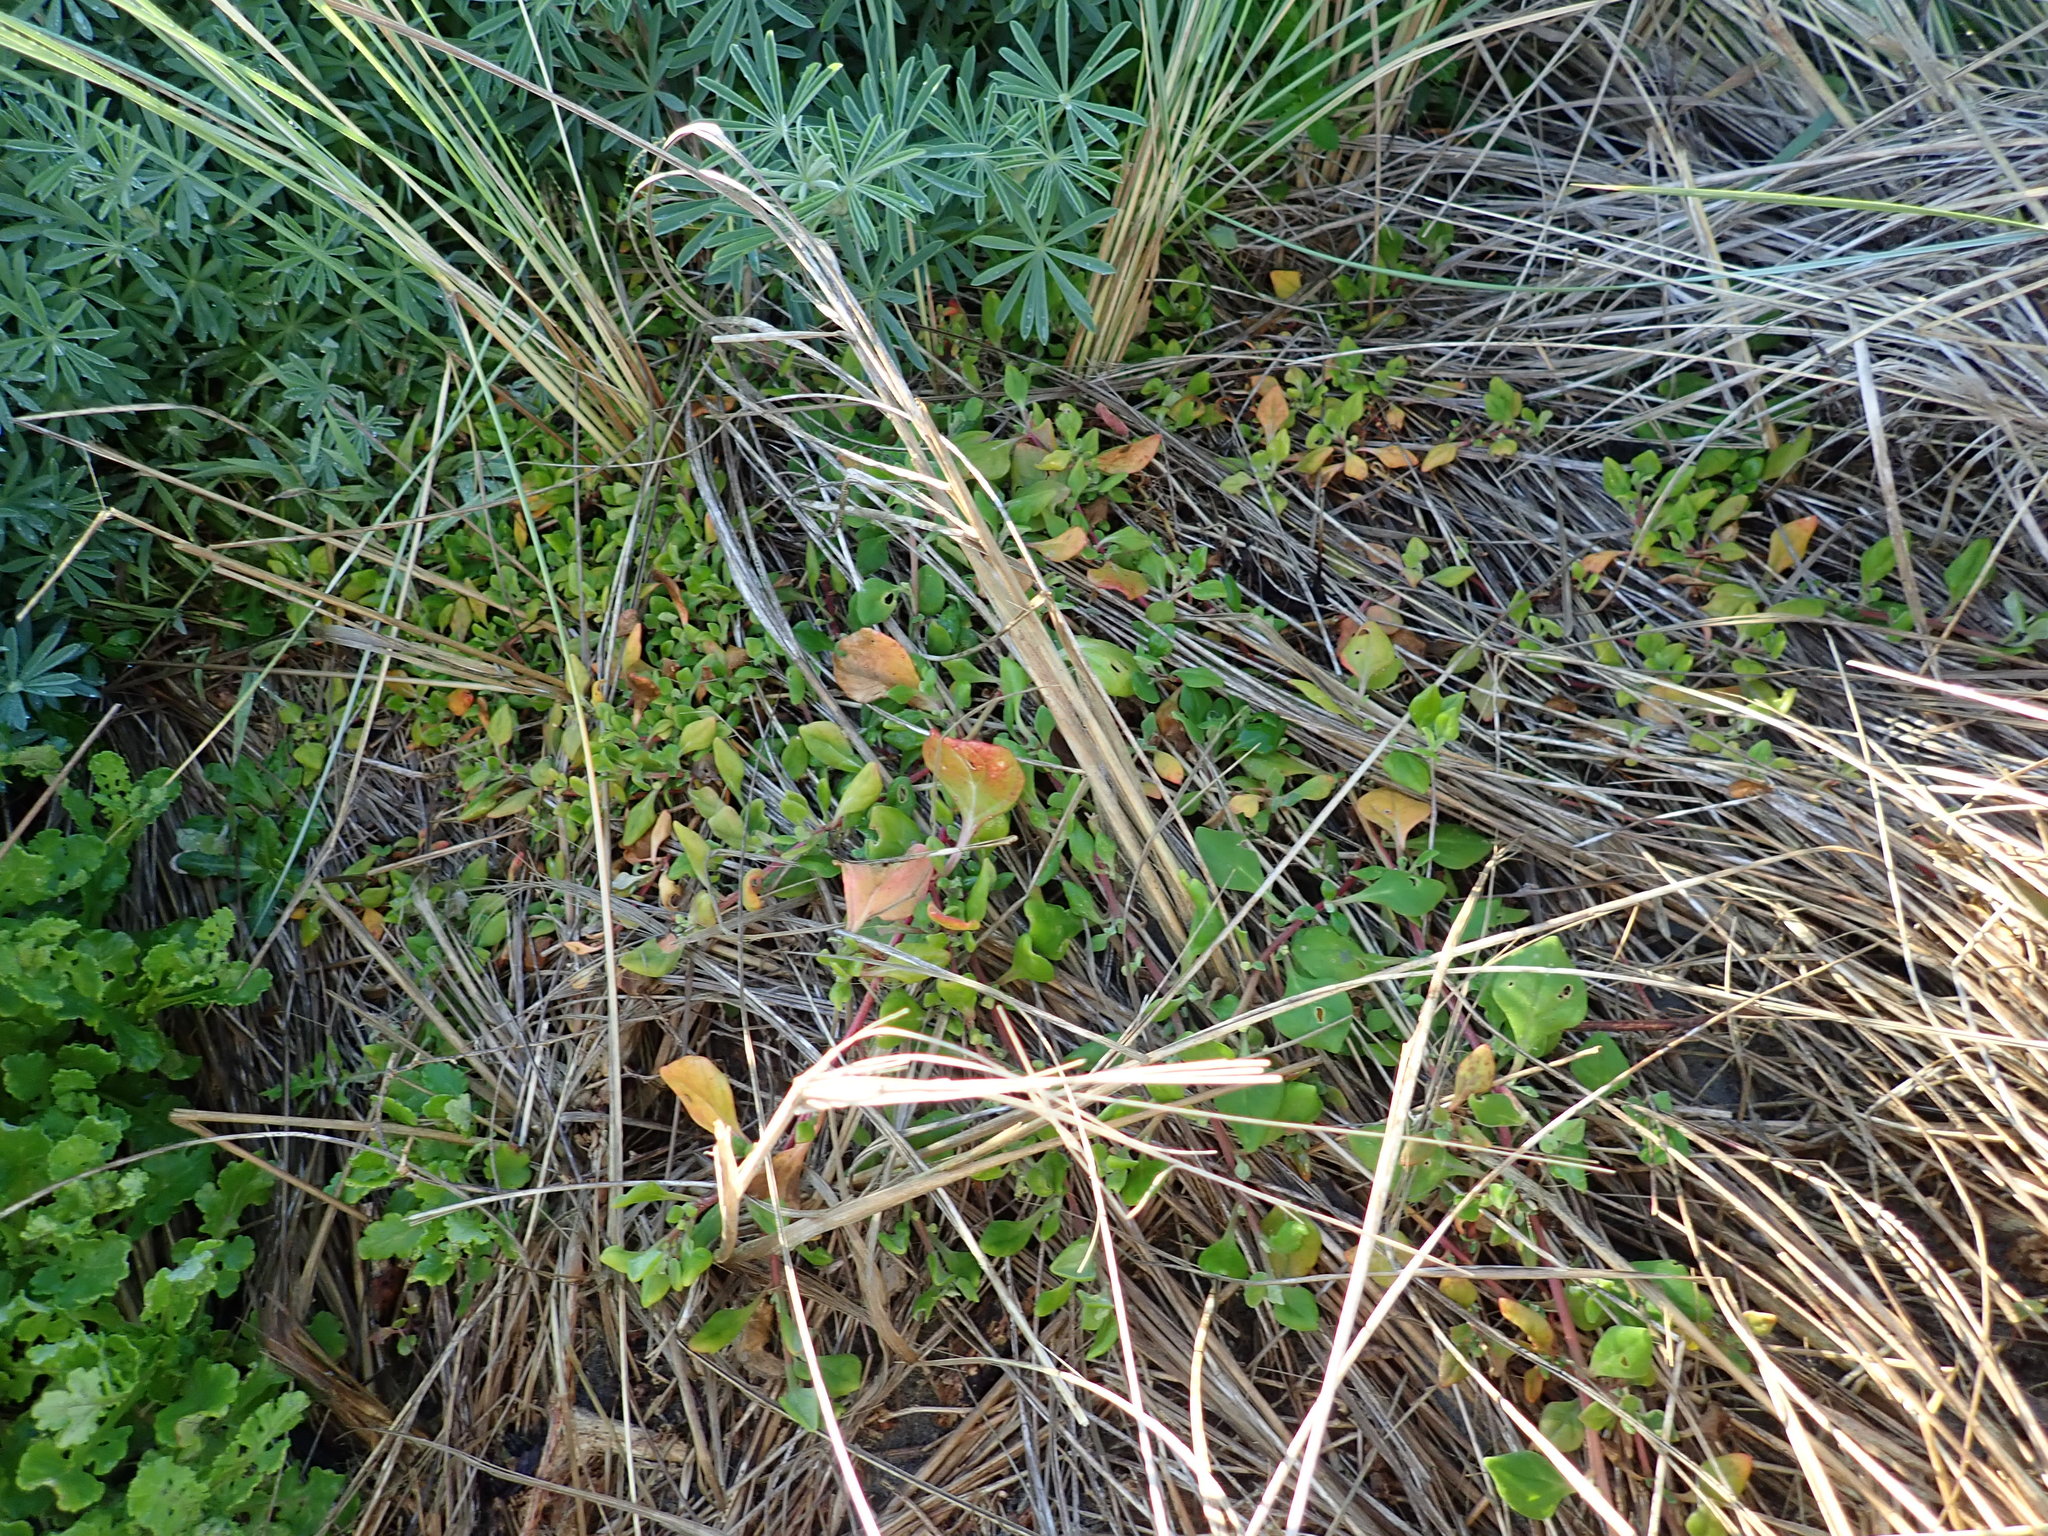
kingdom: Plantae
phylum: Tracheophyta
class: Magnoliopsida
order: Caryophyllales
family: Aizoaceae
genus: Tetragonia
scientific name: Tetragonia implexicoma
